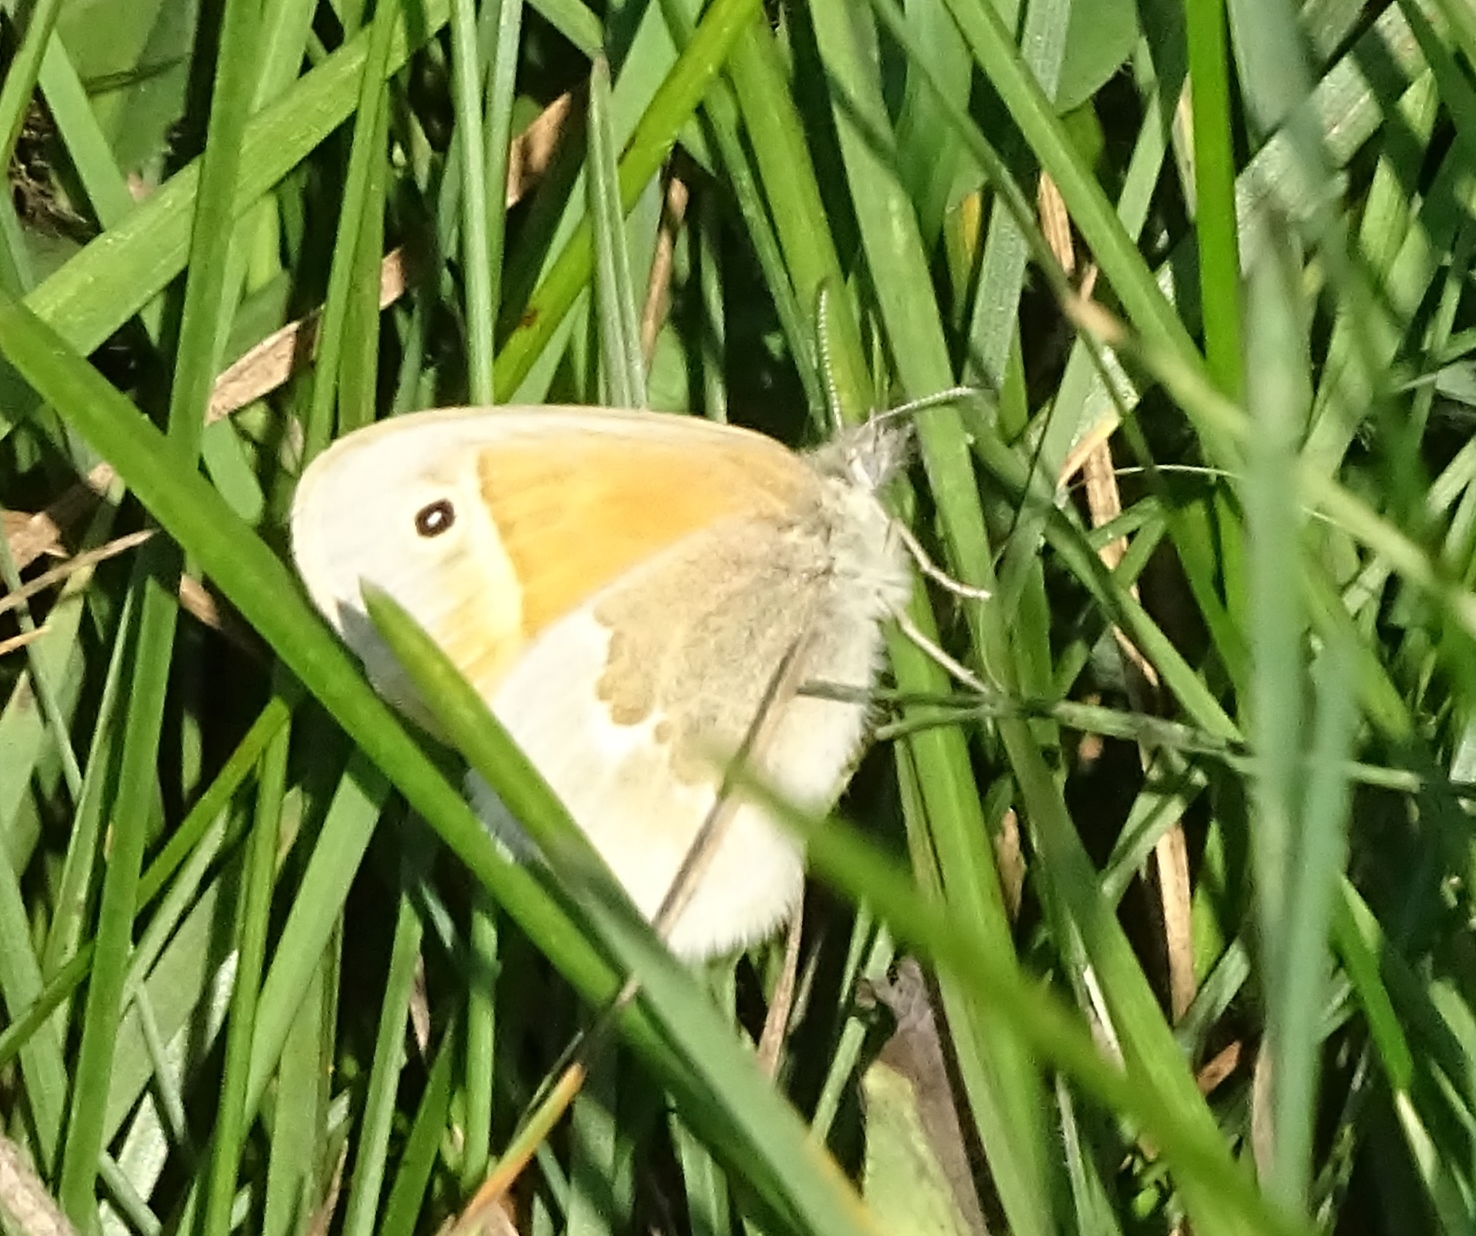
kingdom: Animalia
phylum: Arthropoda
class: Insecta
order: Lepidoptera
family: Nymphalidae
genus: Coenonympha
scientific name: Coenonympha california
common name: Common ringlet
